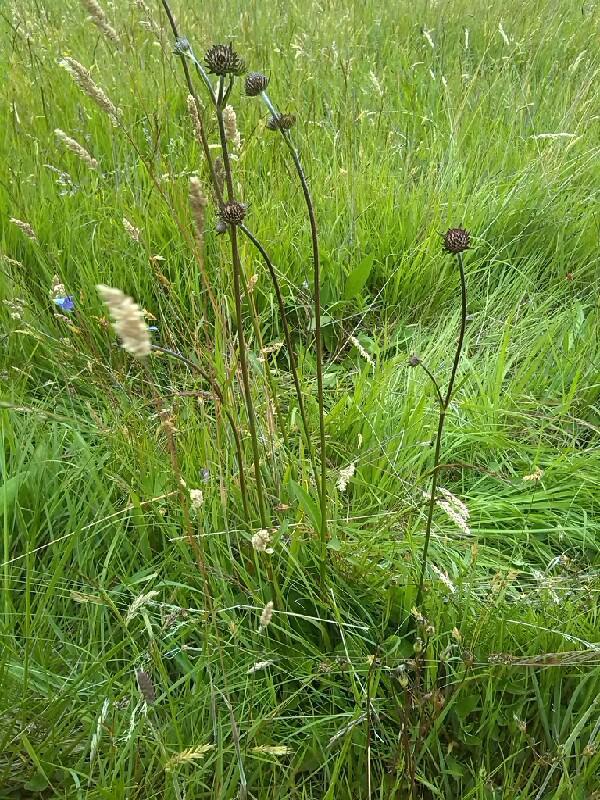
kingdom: Plantae
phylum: Tracheophyta
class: Magnoliopsida
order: Dipsacales
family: Caprifoliaceae
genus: Succisa
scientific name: Succisa pratensis
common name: Devil's-bit
